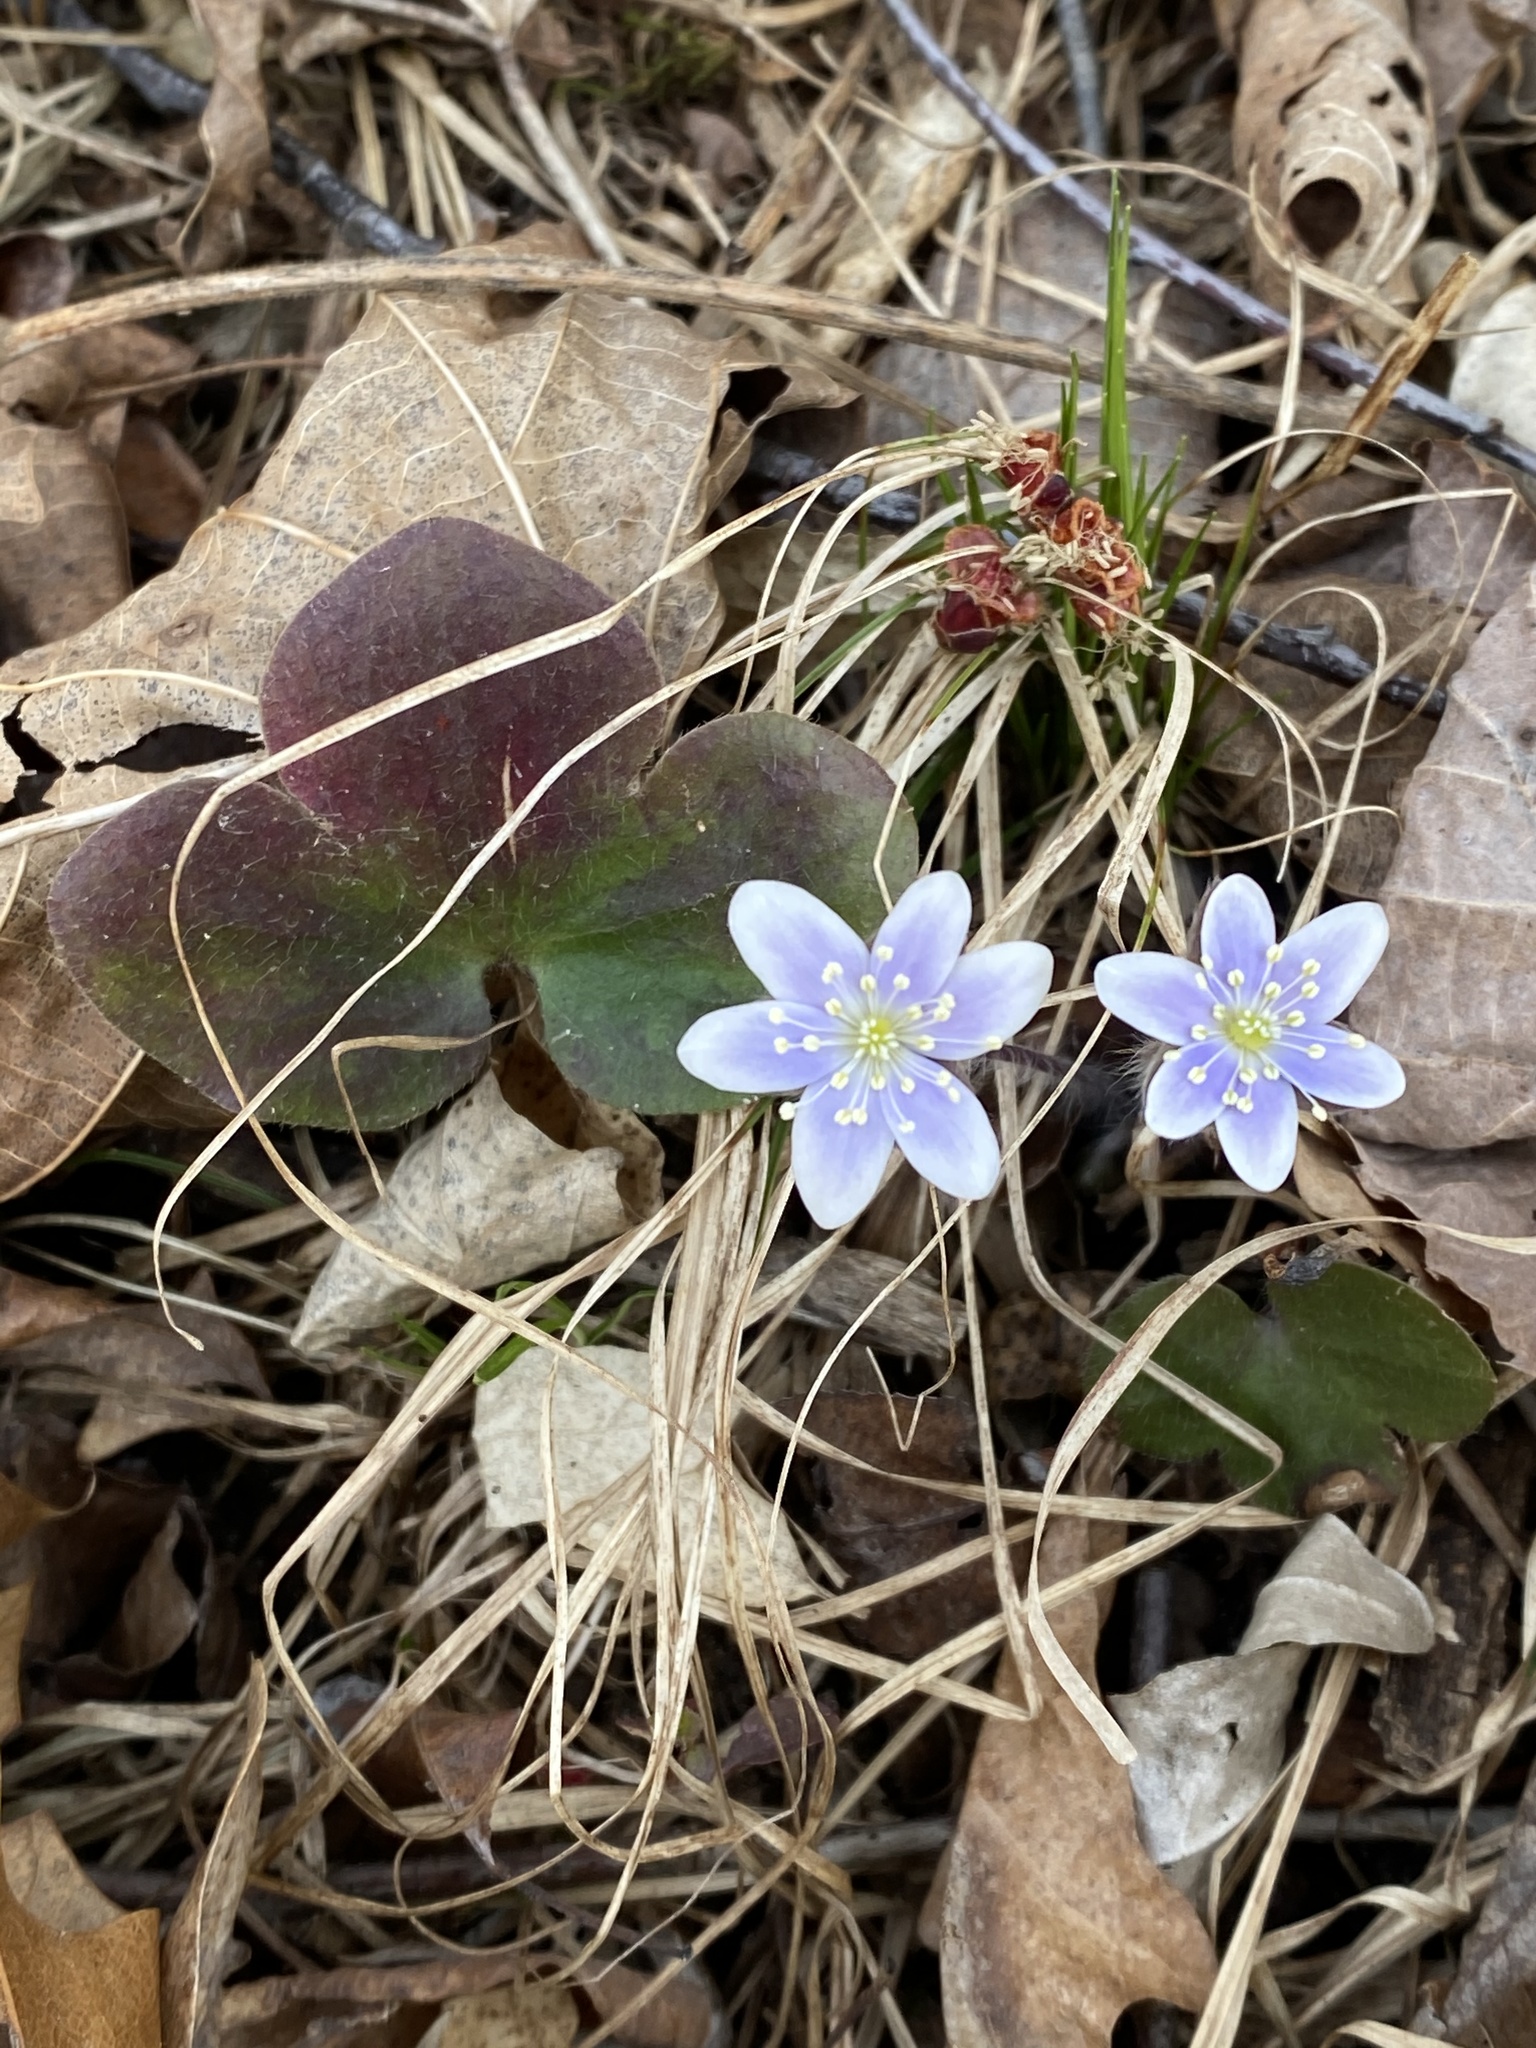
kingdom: Plantae
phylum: Tracheophyta
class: Magnoliopsida
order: Ranunculales
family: Ranunculaceae
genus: Hepatica
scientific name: Hepatica americana
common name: American hepatica
